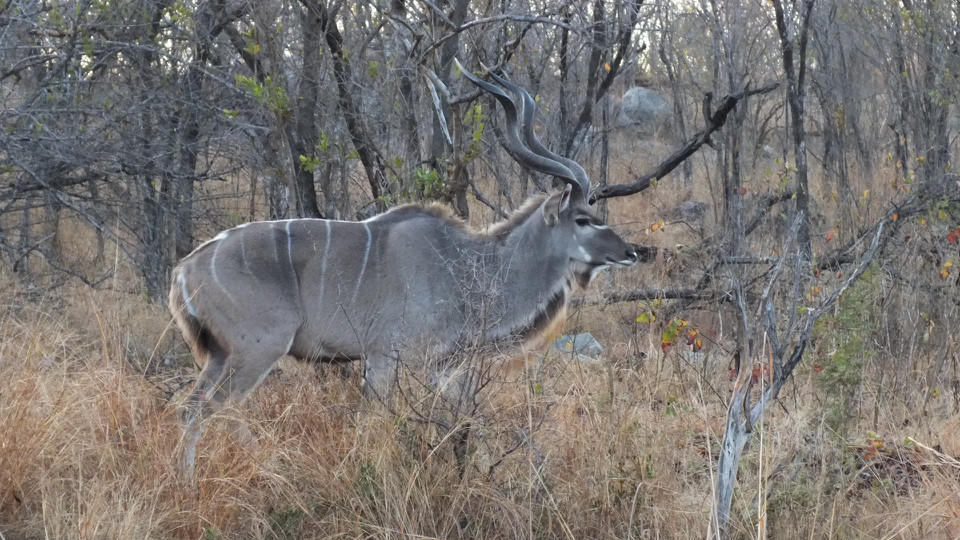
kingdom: Animalia
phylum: Chordata
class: Mammalia
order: Artiodactyla
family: Bovidae
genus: Tragelaphus
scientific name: Tragelaphus strepsiceros
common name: Greater kudu
